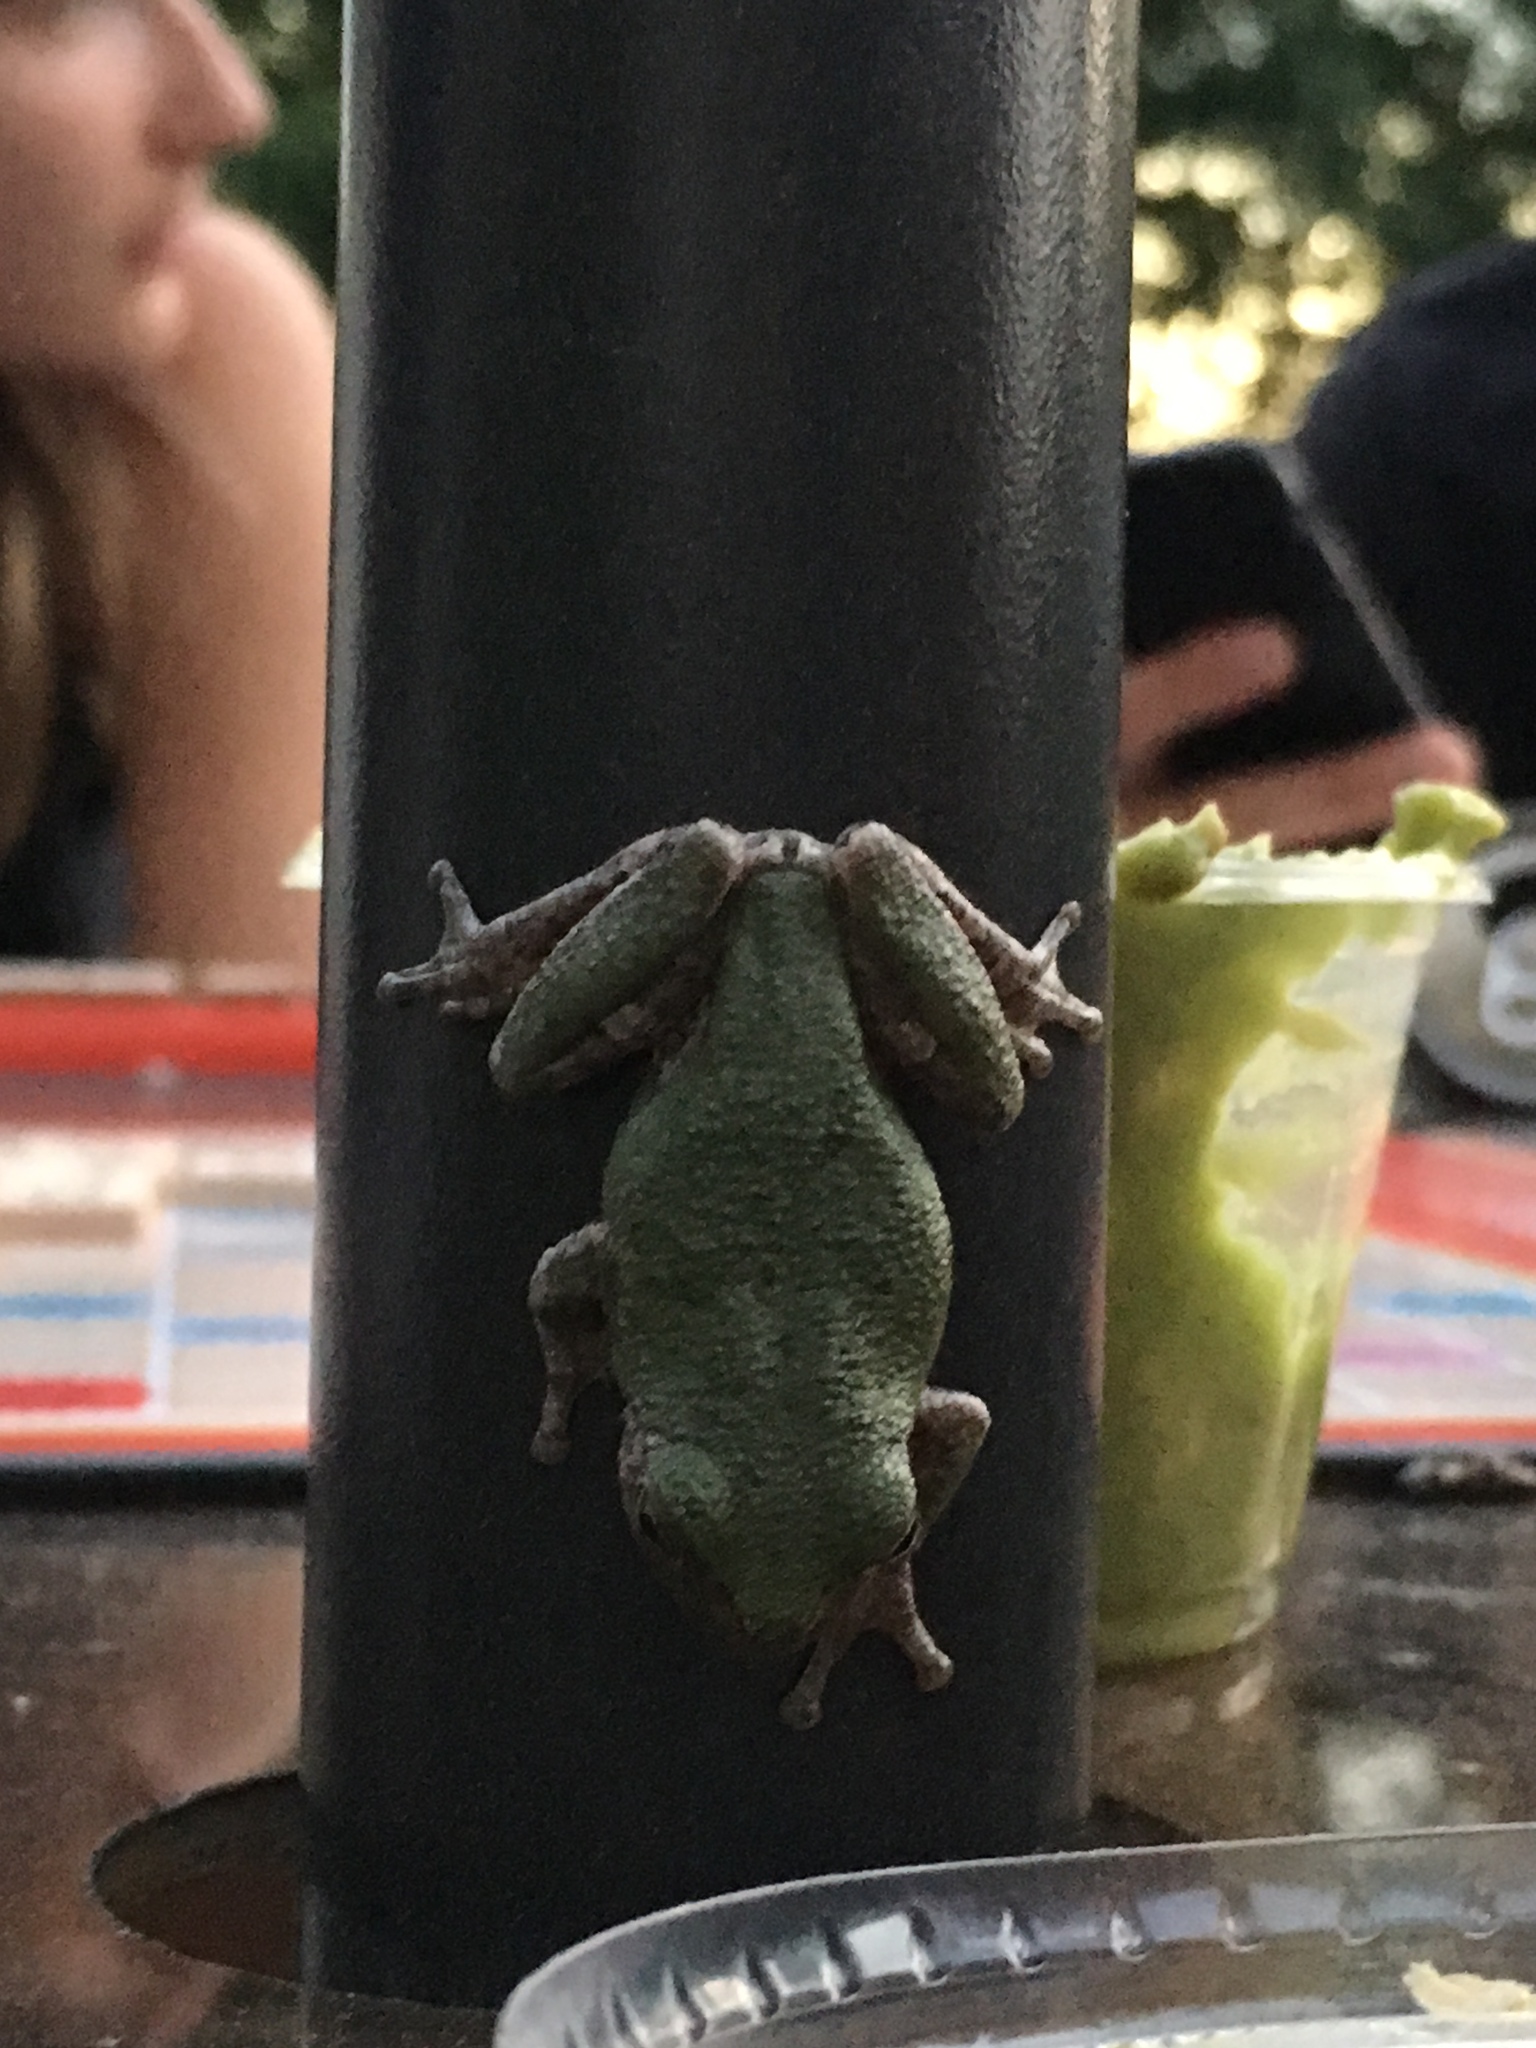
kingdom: Animalia
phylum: Chordata
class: Amphibia
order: Anura
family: Hylidae
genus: Hyla
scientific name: Hyla
